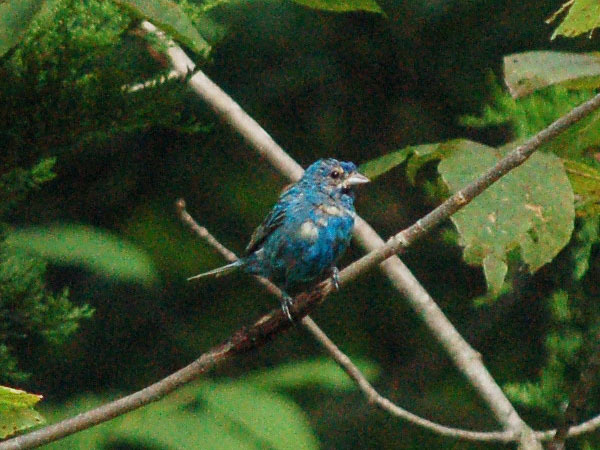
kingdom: Animalia
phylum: Chordata
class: Aves
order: Passeriformes
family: Cardinalidae
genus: Passerina
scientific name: Passerina cyanea
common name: Indigo bunting
